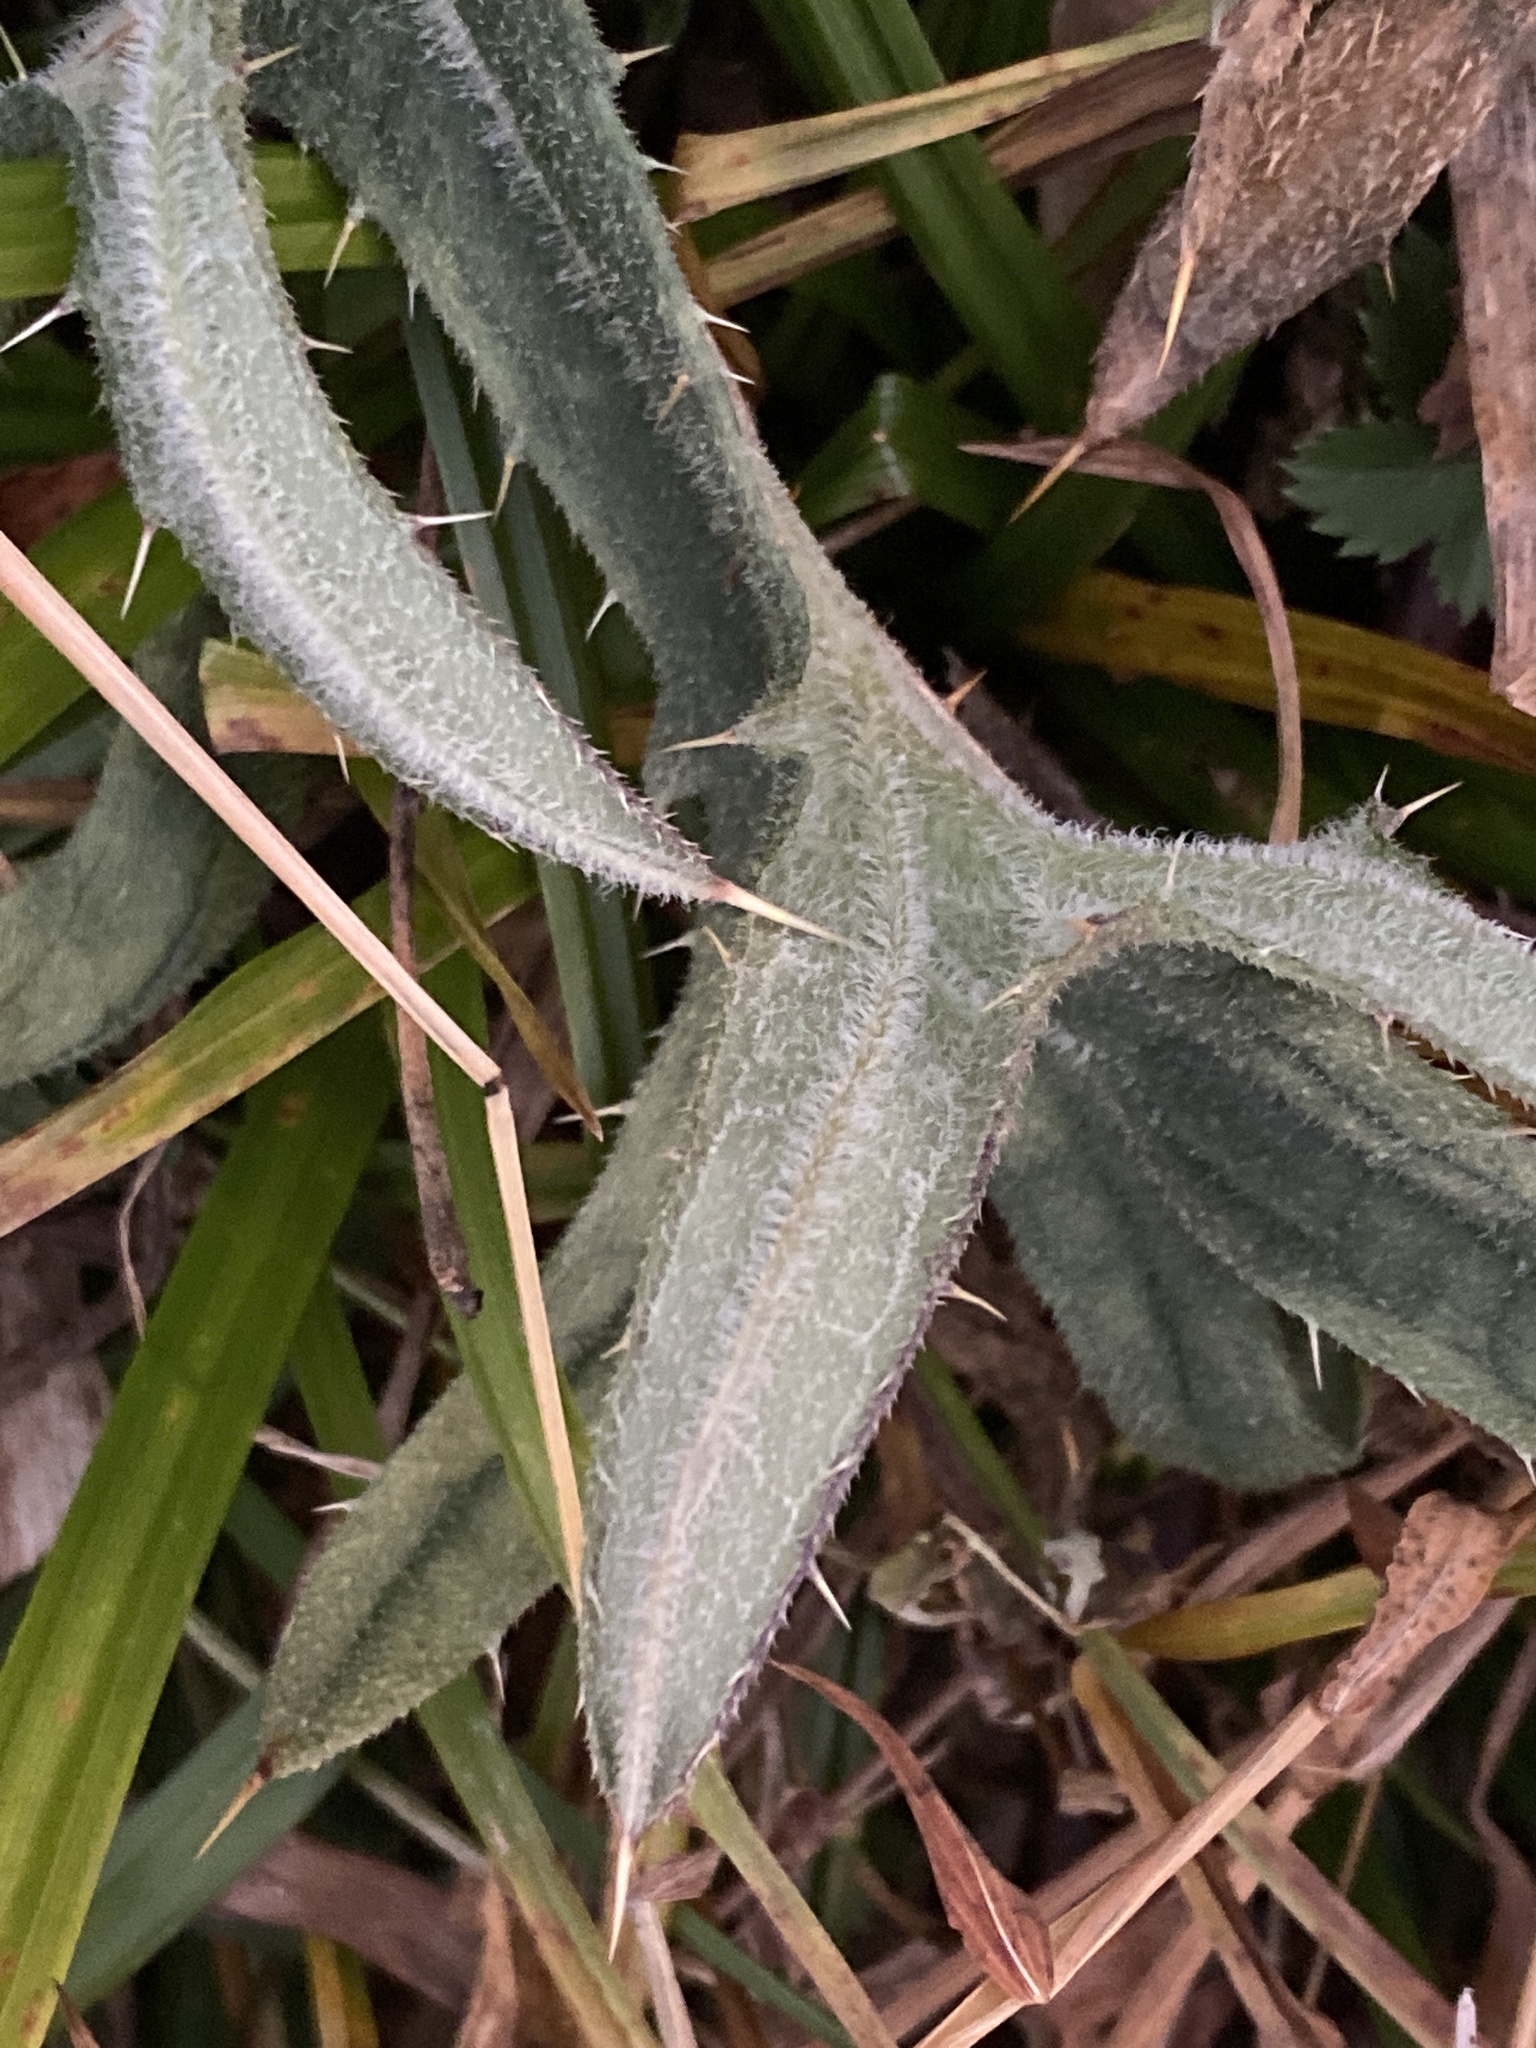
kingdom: Plantae
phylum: Tracheophyta
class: Magnoliopsida
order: Asterales
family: Asteraceae
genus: Cirsium
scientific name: Cirsium vulgare
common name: Bull thistle
